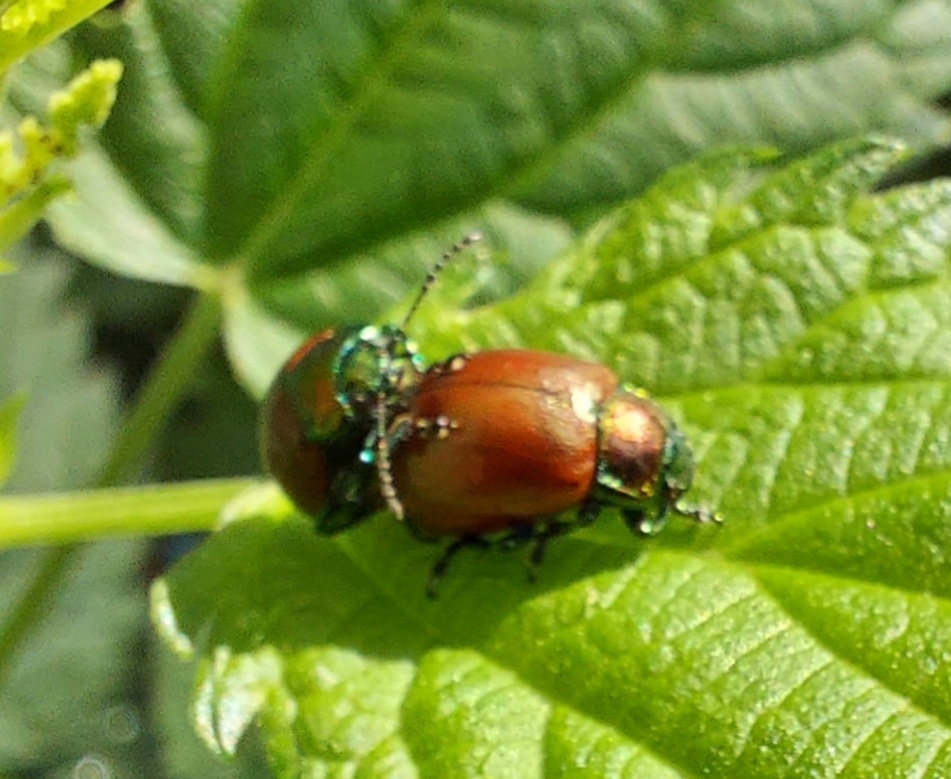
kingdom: Animalia
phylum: Arthropoda
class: Insecta
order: Coleoptera
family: Chrysomelidae
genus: Chrysomela
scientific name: Chrysomela polita
